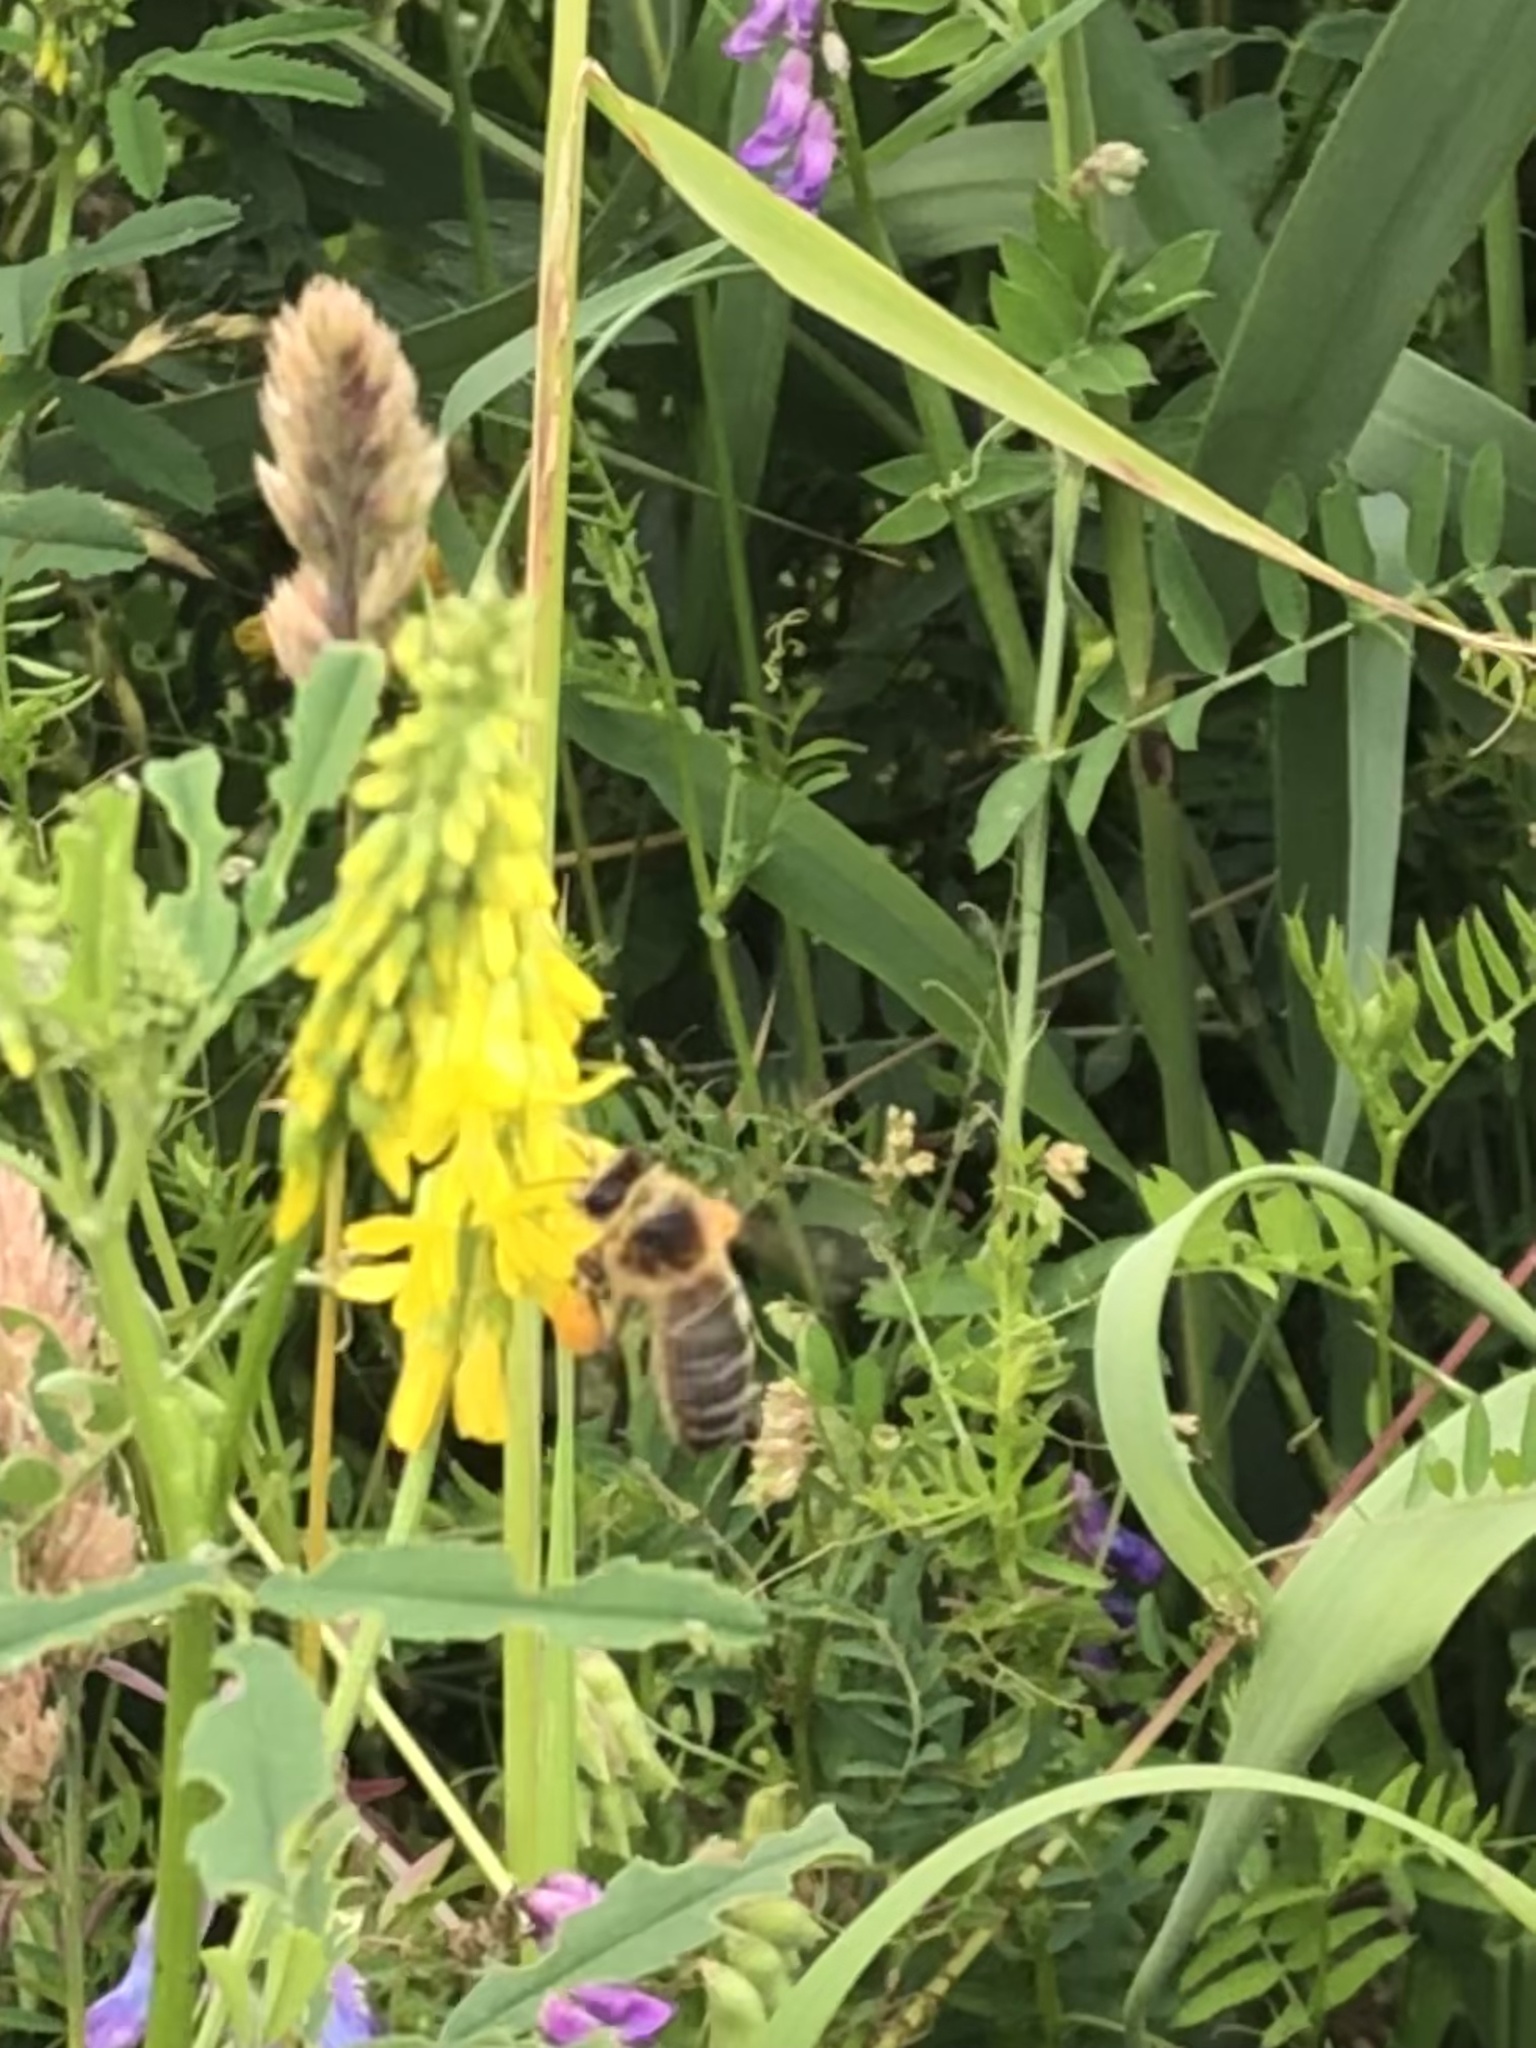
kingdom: Animalia
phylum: Arthropoda
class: Insecta
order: Hymenoptera
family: Apidae
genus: Apis
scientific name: Apis mellifera
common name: Honey bee
